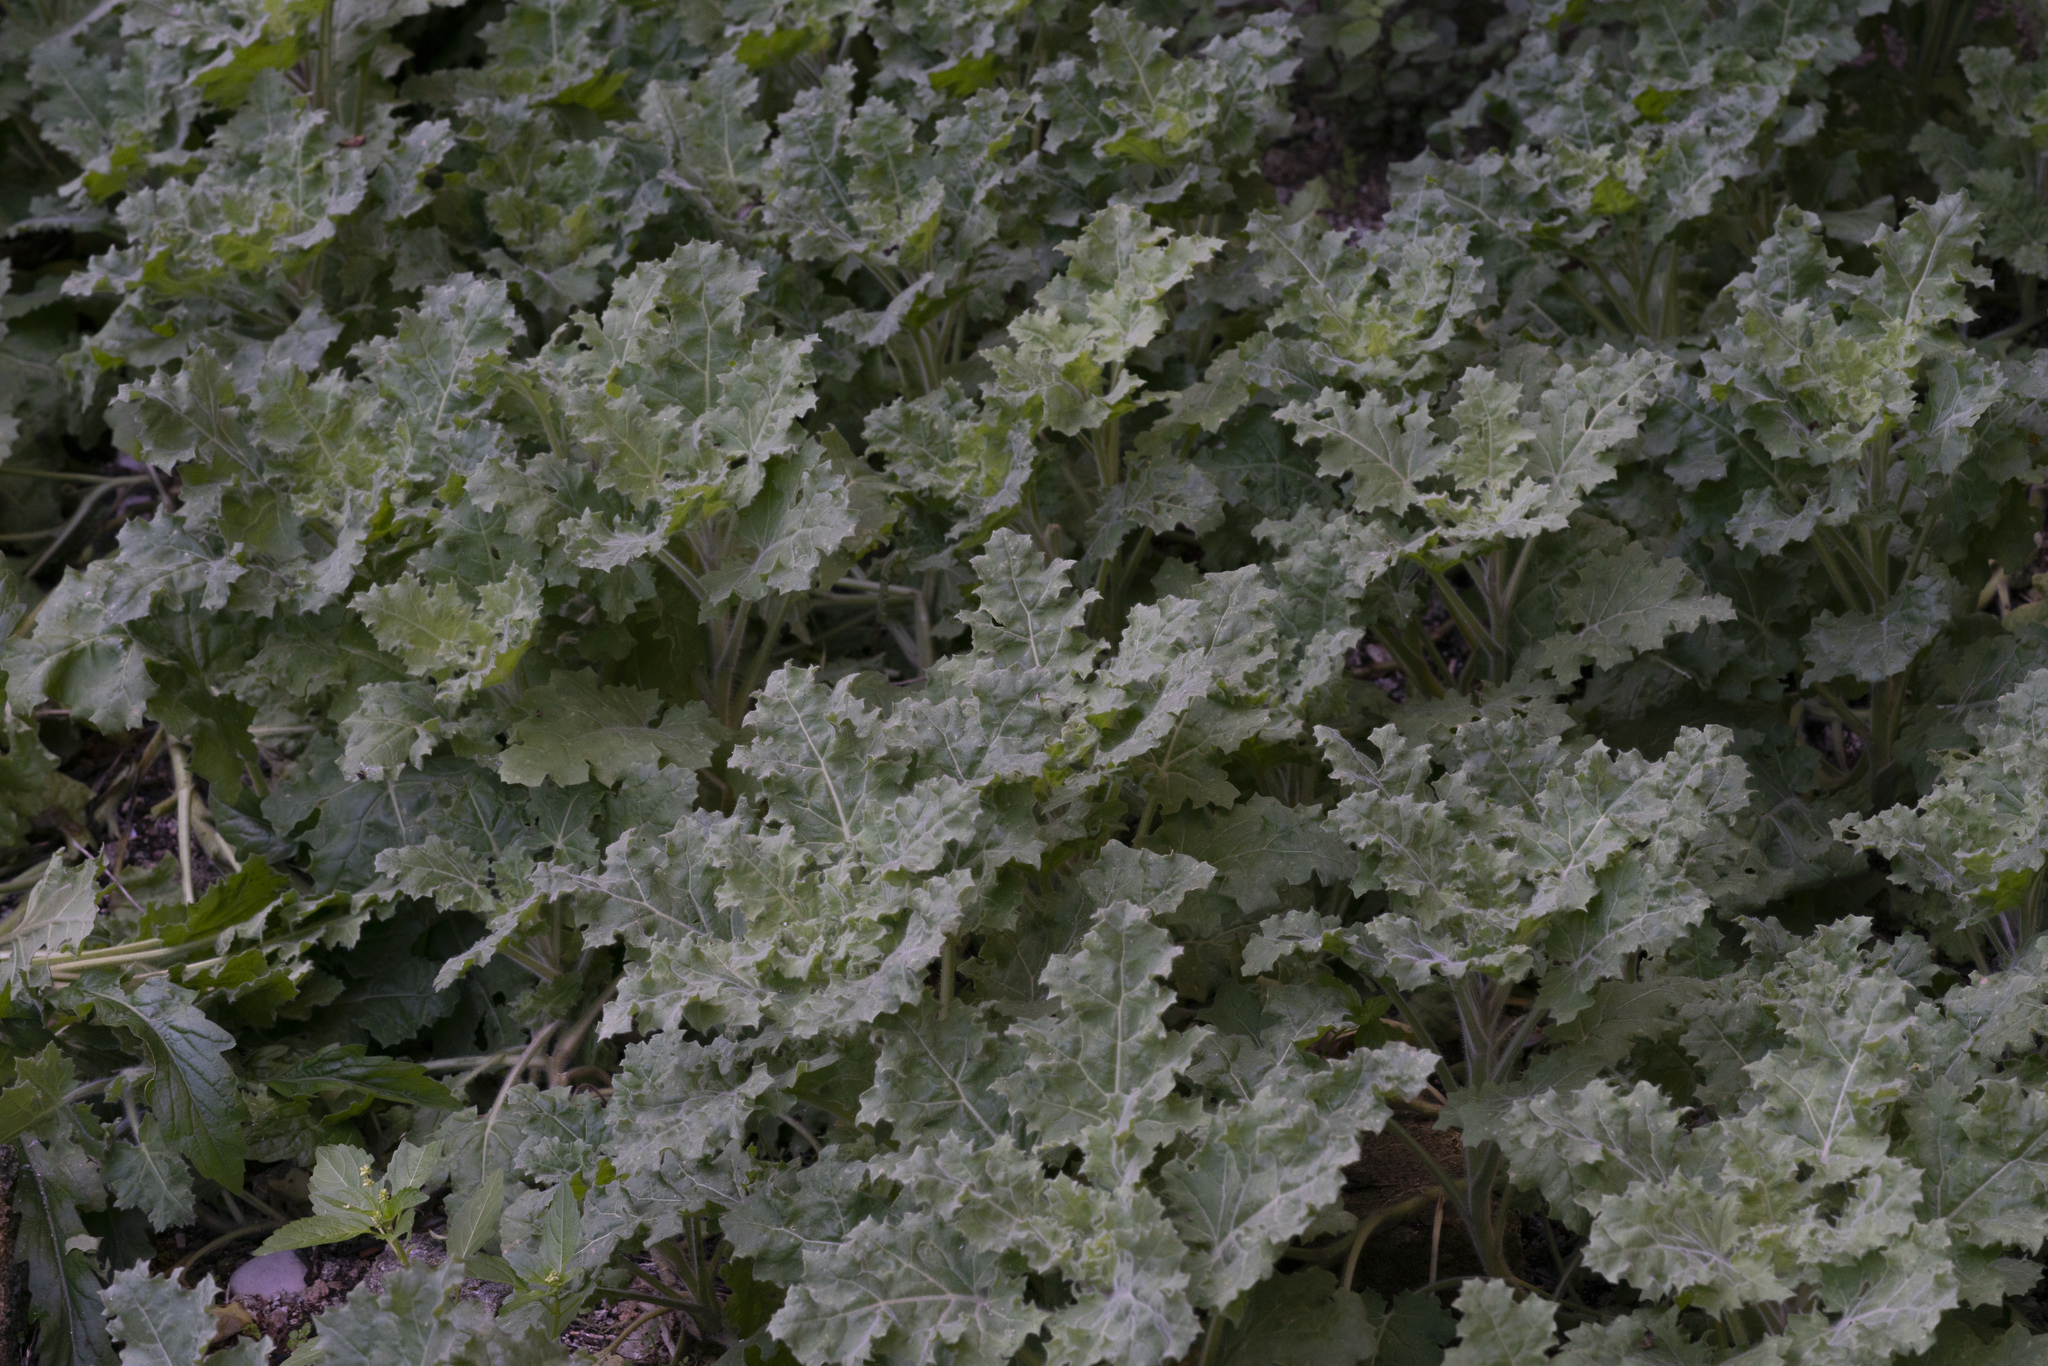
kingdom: Plantae
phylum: Tracheophyta
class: Magnoliopsida
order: Solanales
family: Solanaceae
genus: Hyoscyamus
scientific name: Hyoscyamus
